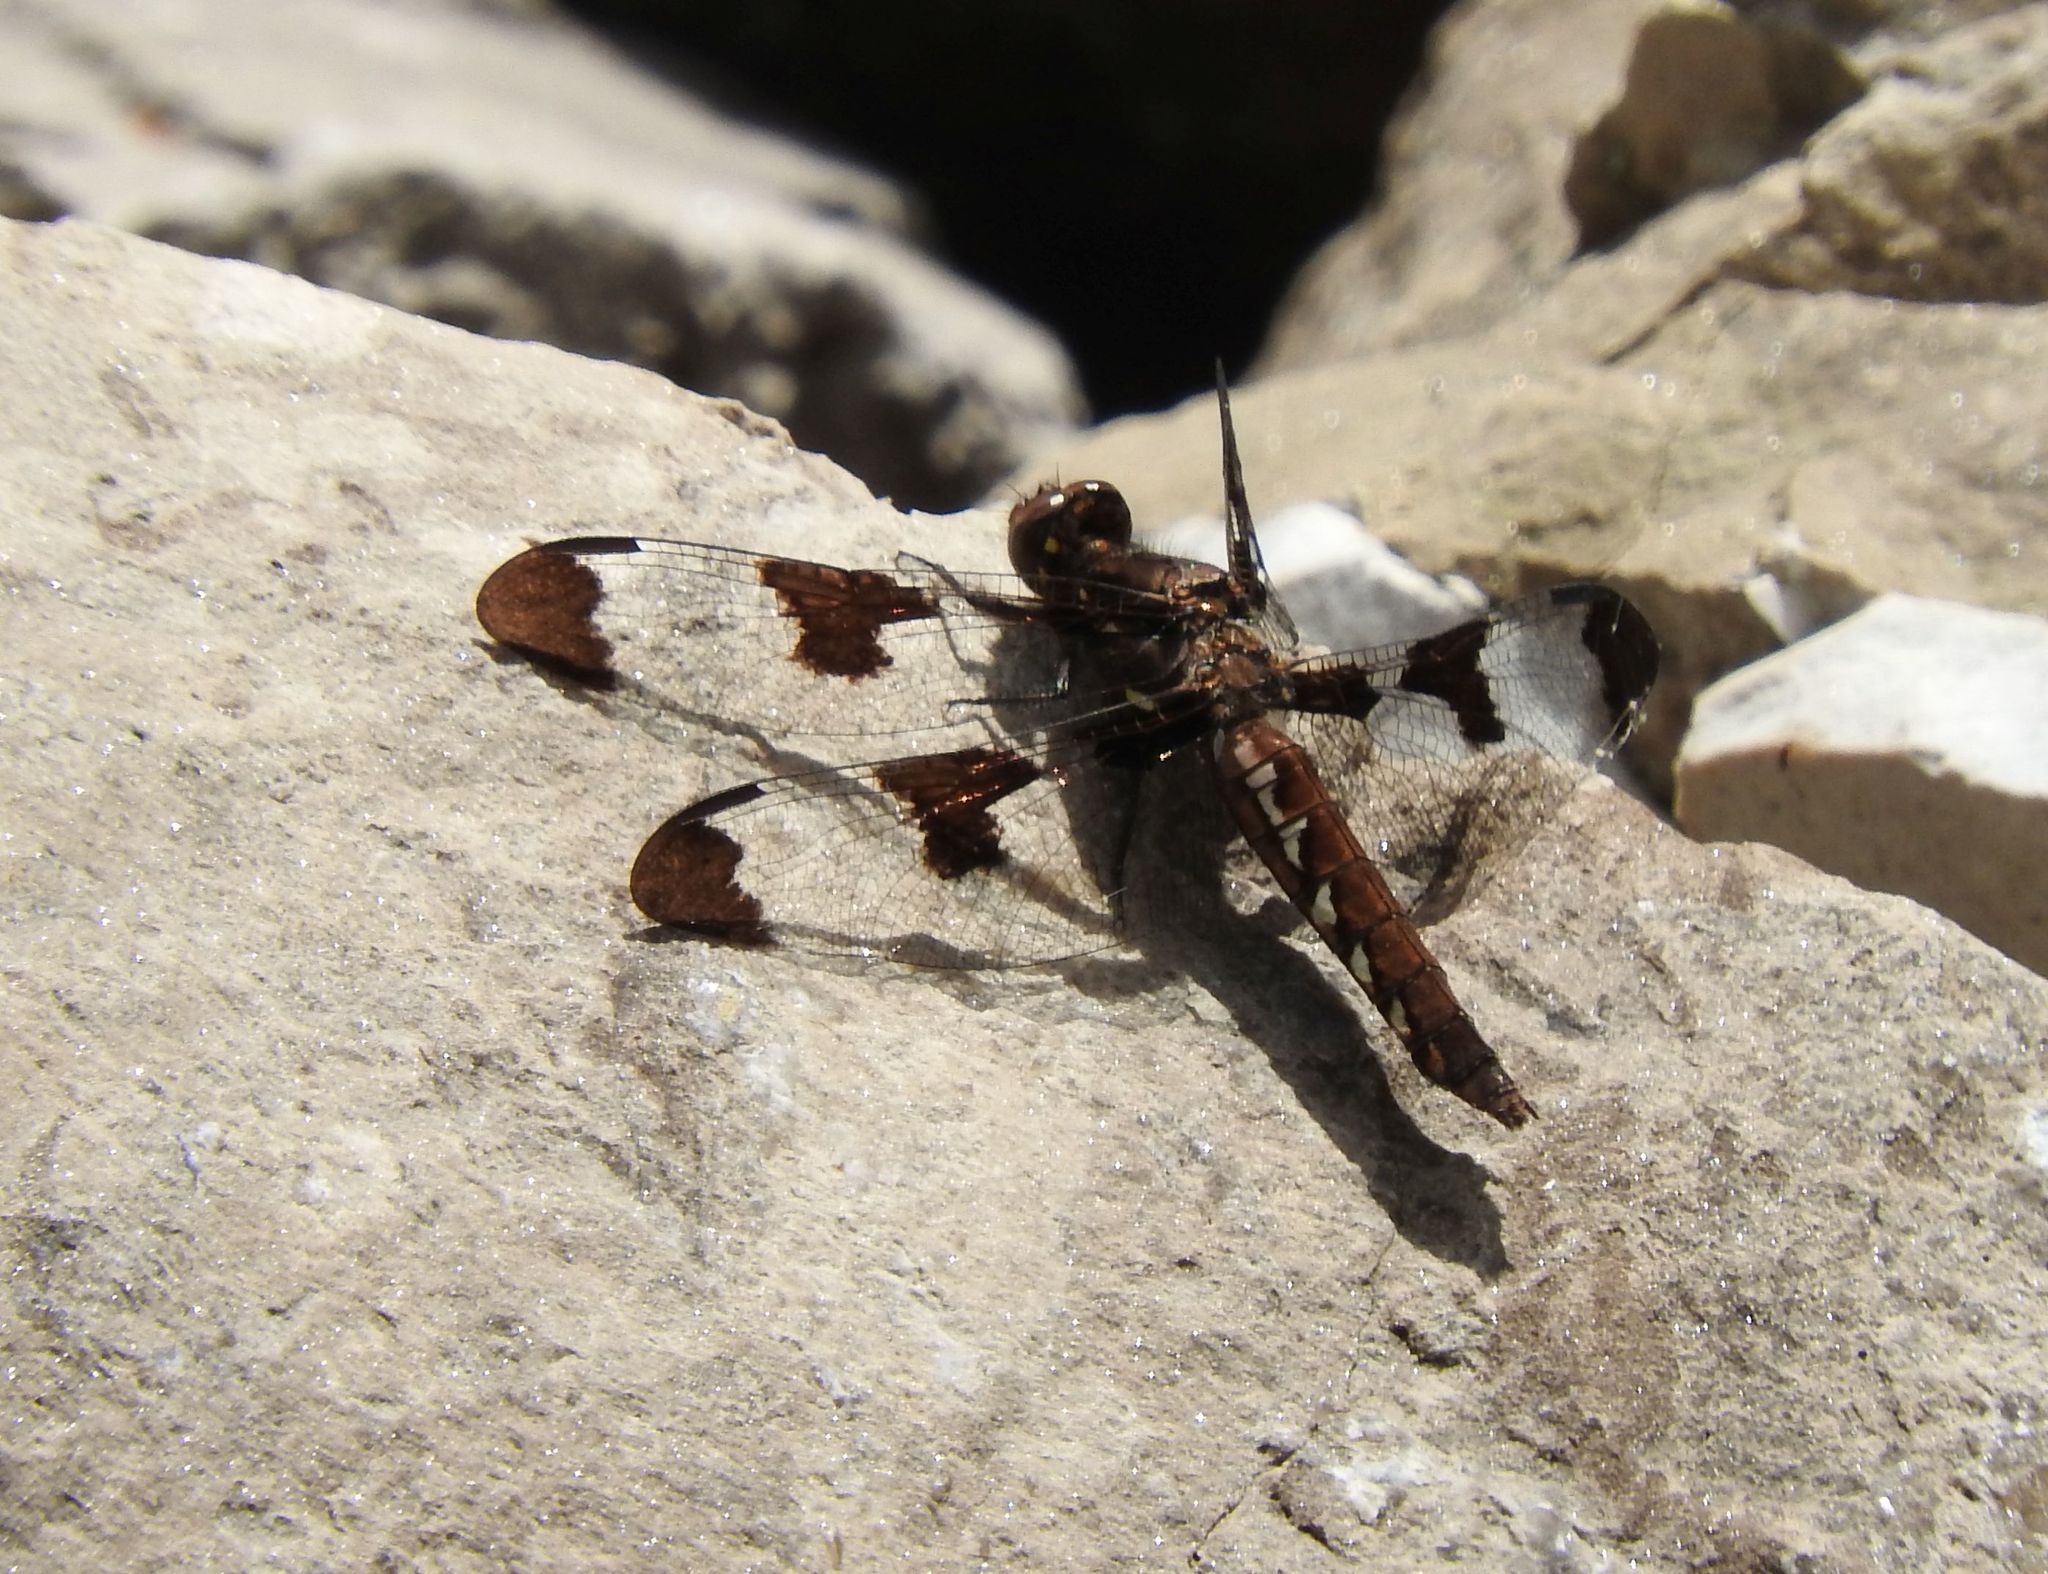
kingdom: Animalia
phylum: Arthropoda
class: Insecta
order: Odonata
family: Libellulidae
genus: Plathemis
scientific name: Plathemis lydia
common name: Common whitetail
